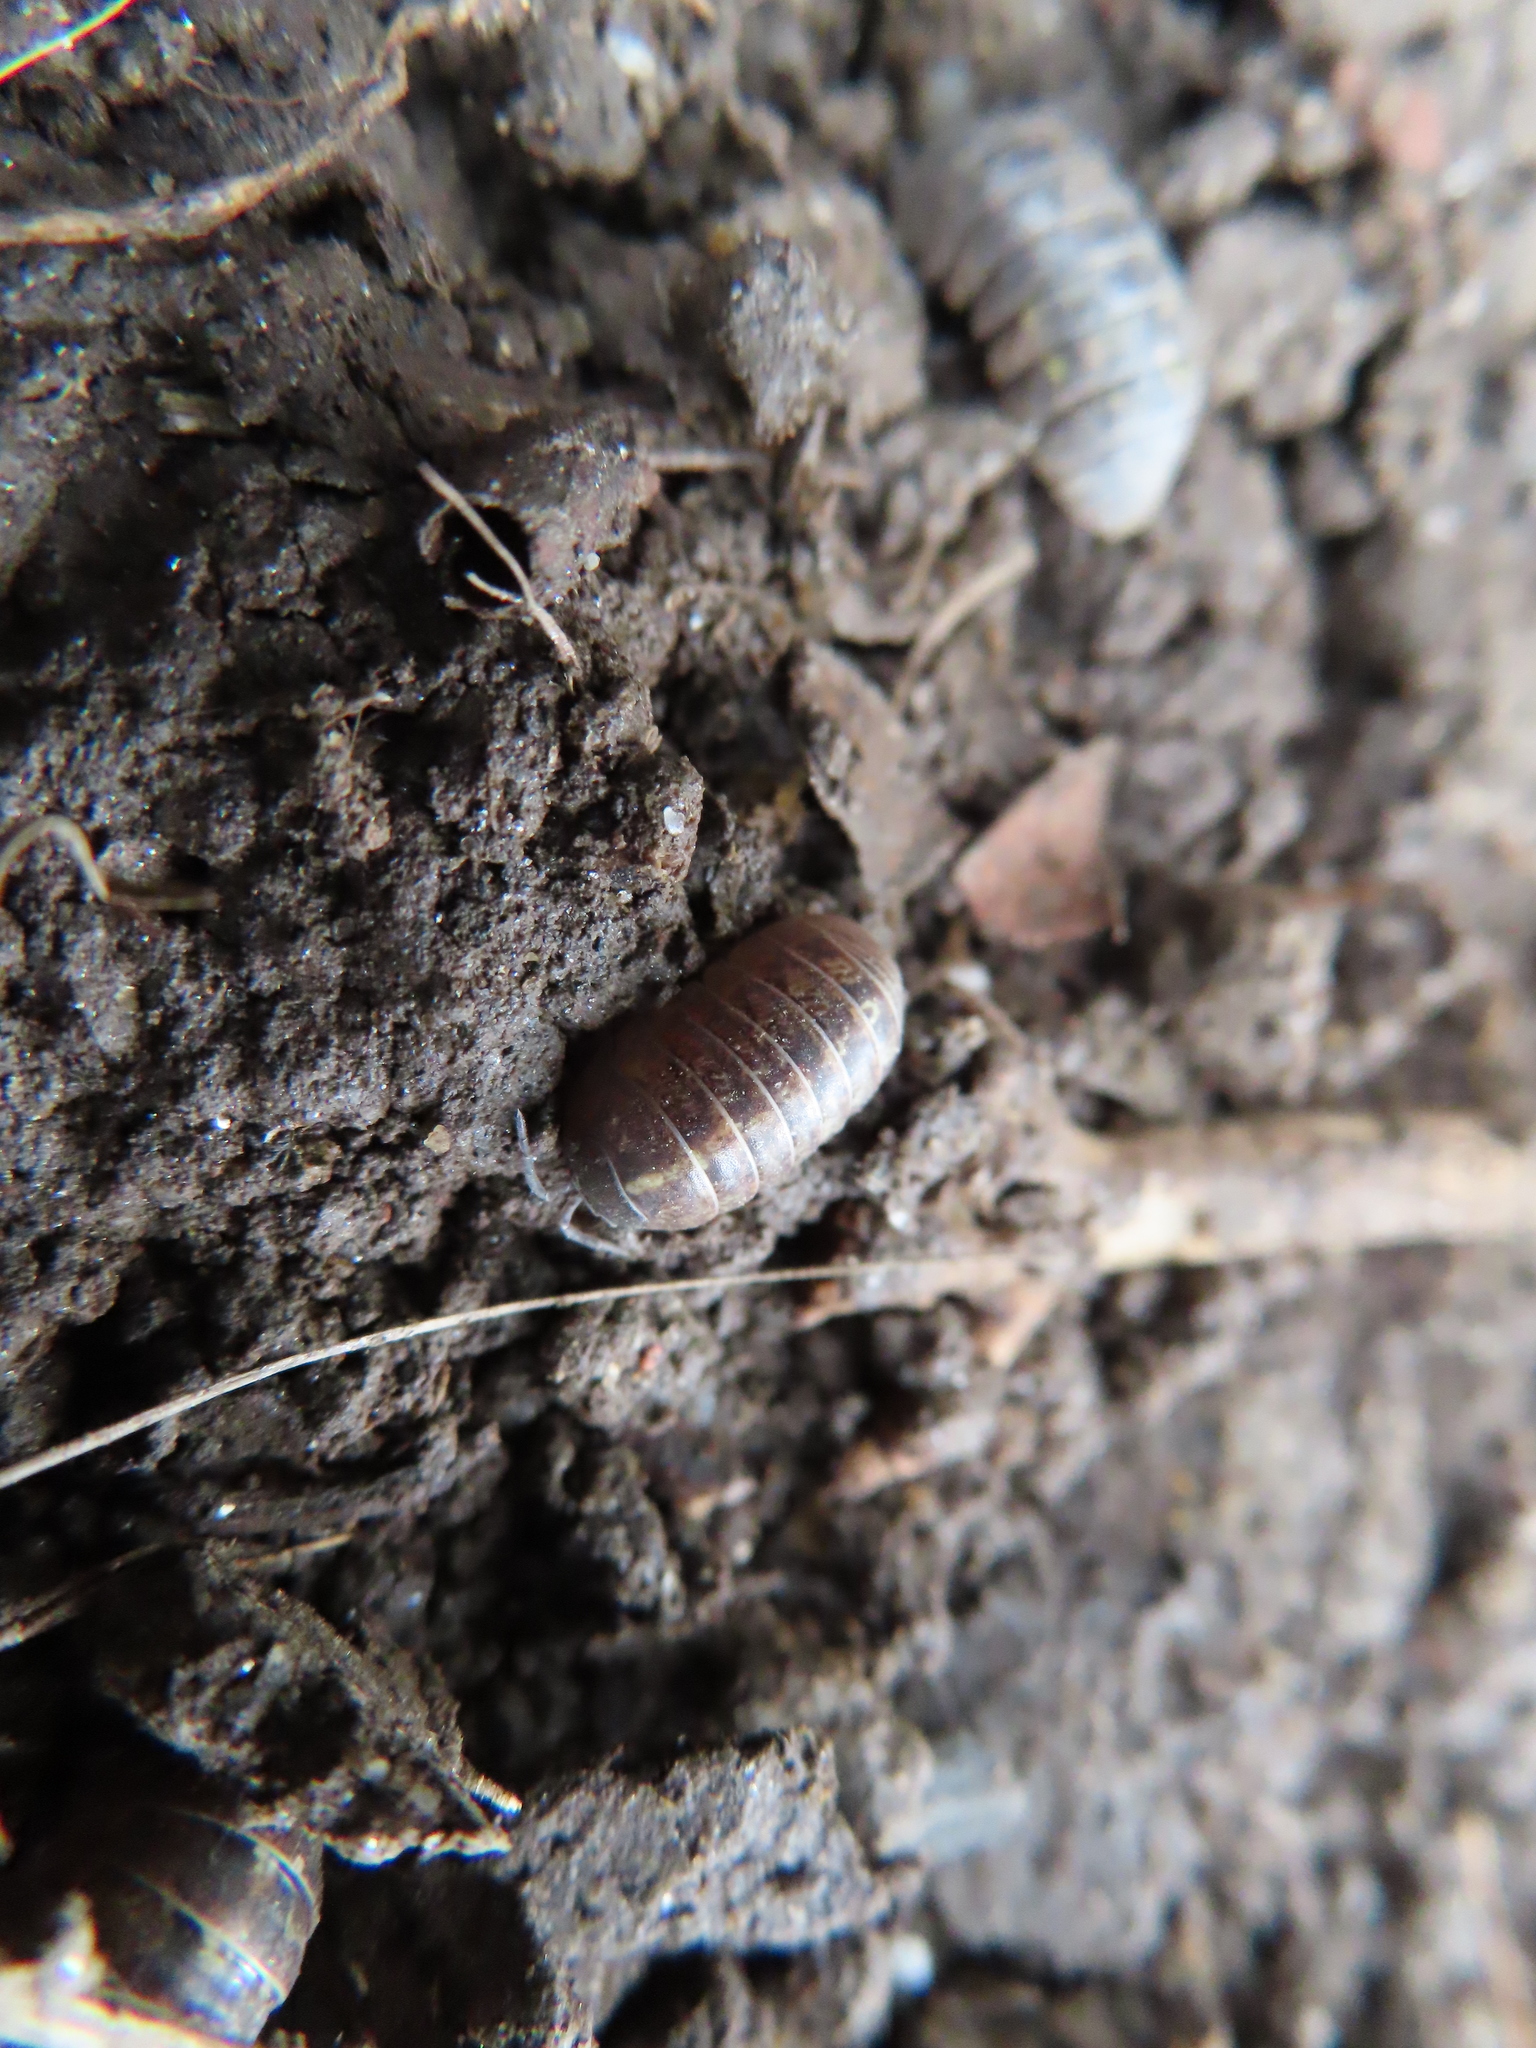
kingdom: Animalia
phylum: Arthropoda
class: Malacostraca
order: Isopoda
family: Armadillidiidae
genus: Armadillidium
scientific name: Armadillidium vulgare
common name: Common pill woodlouse
